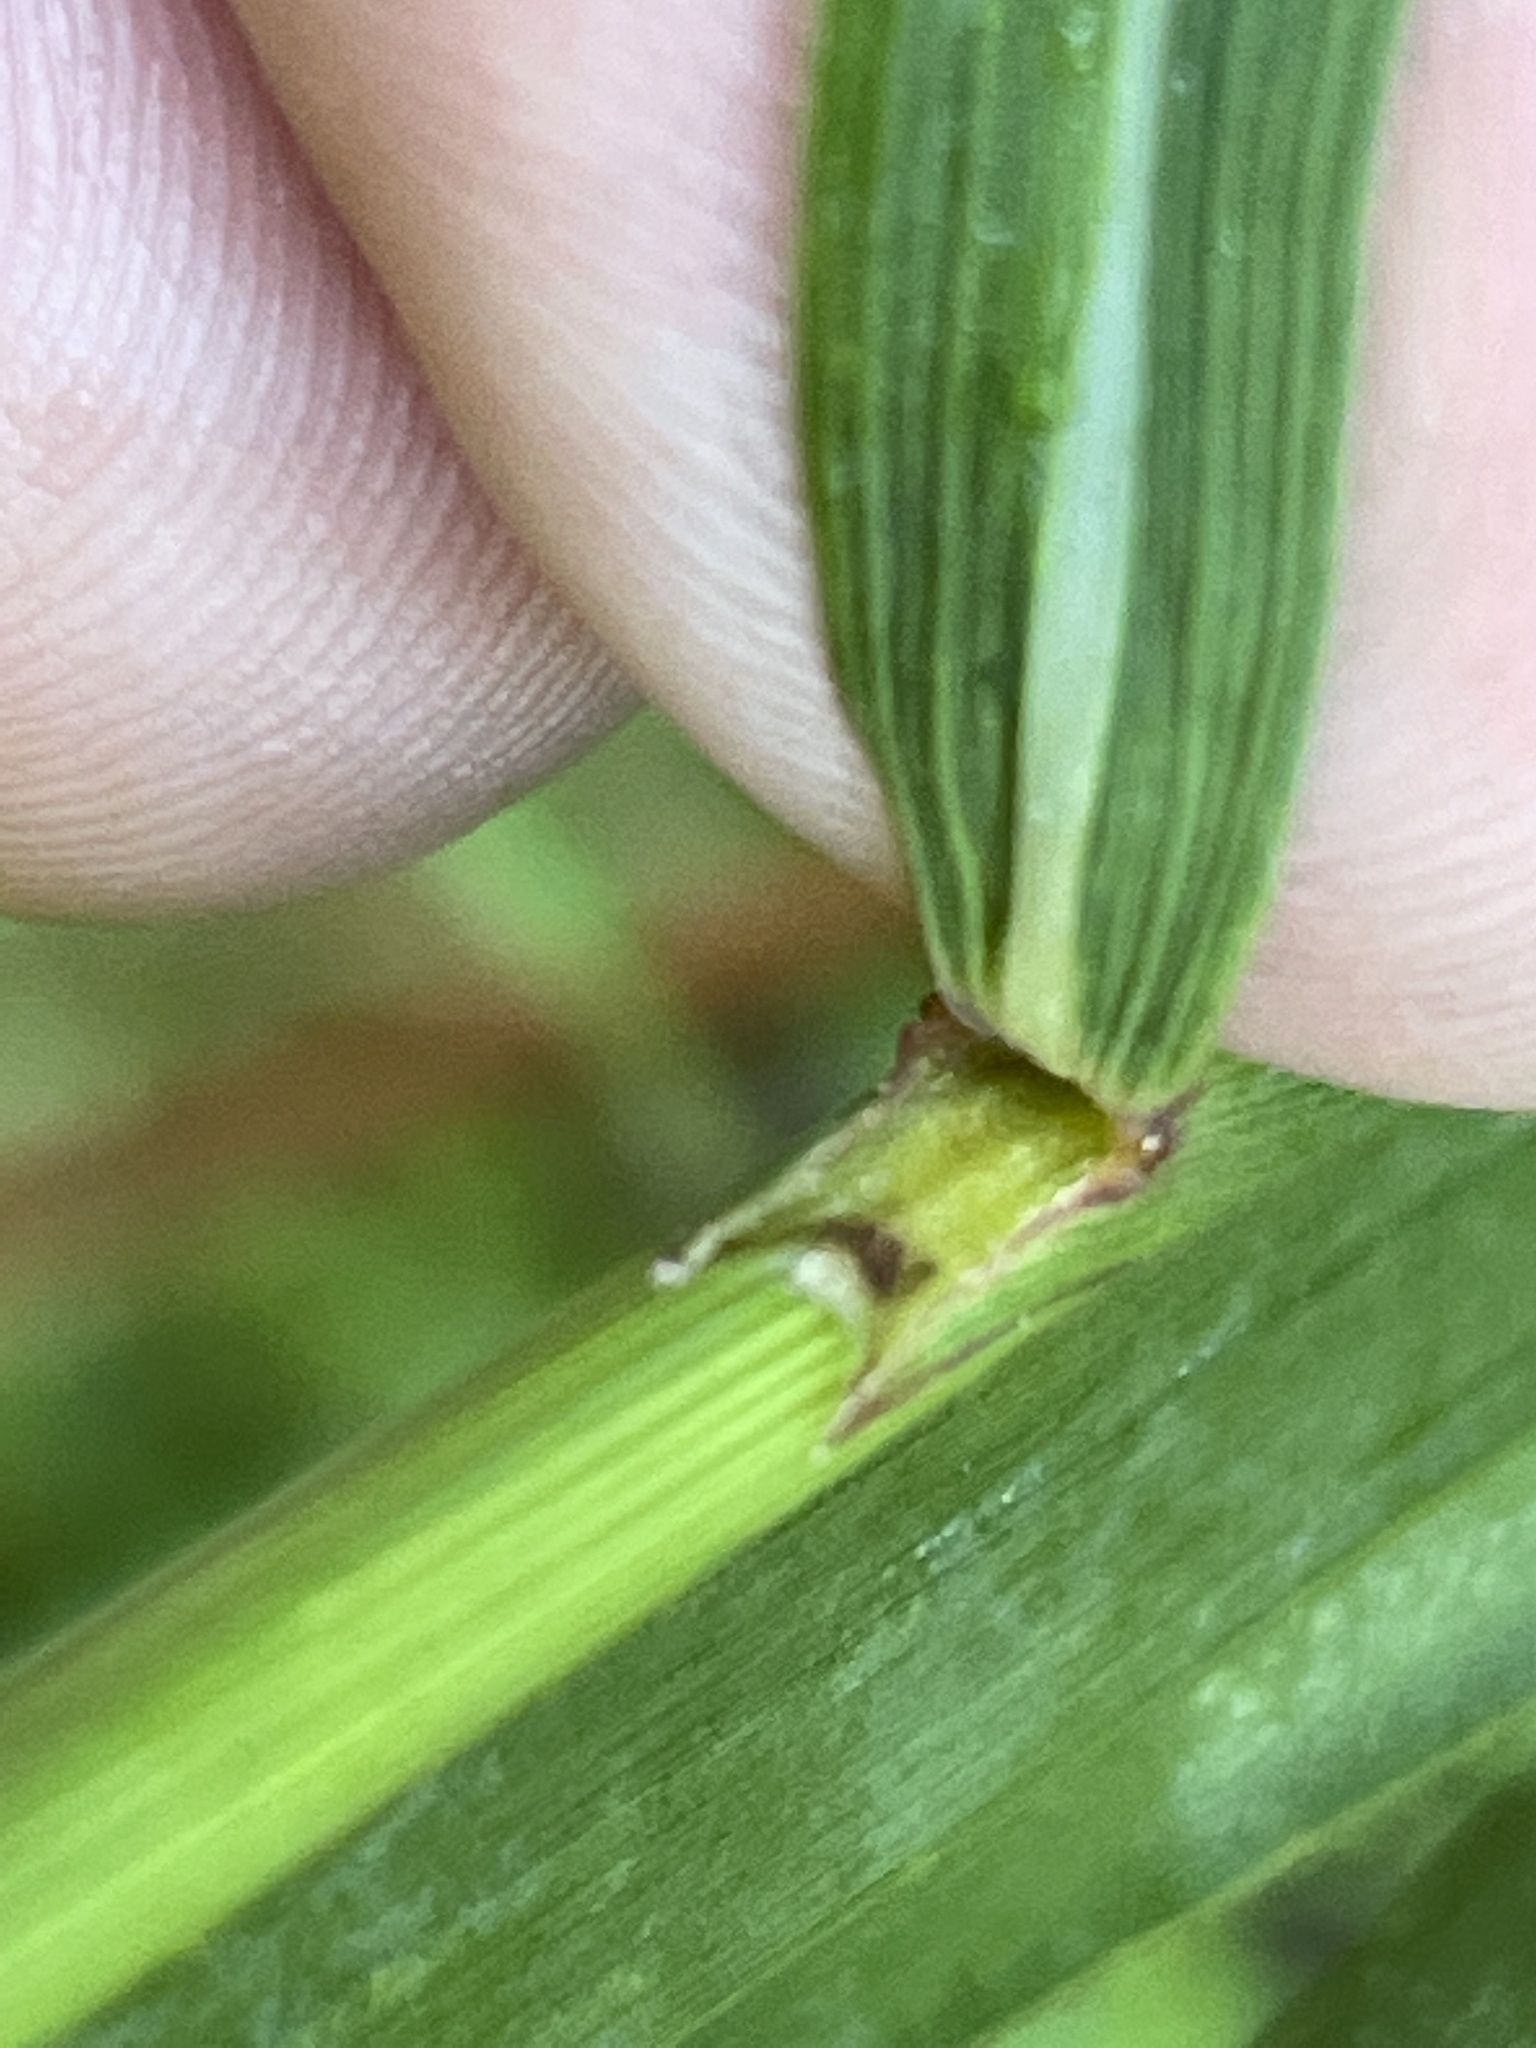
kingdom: Plantae
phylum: Tracheophyta
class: Liliopsida
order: Poales
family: Poaceae
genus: Sorghastrum
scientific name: Sorghastrum nutans
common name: Indian grass
